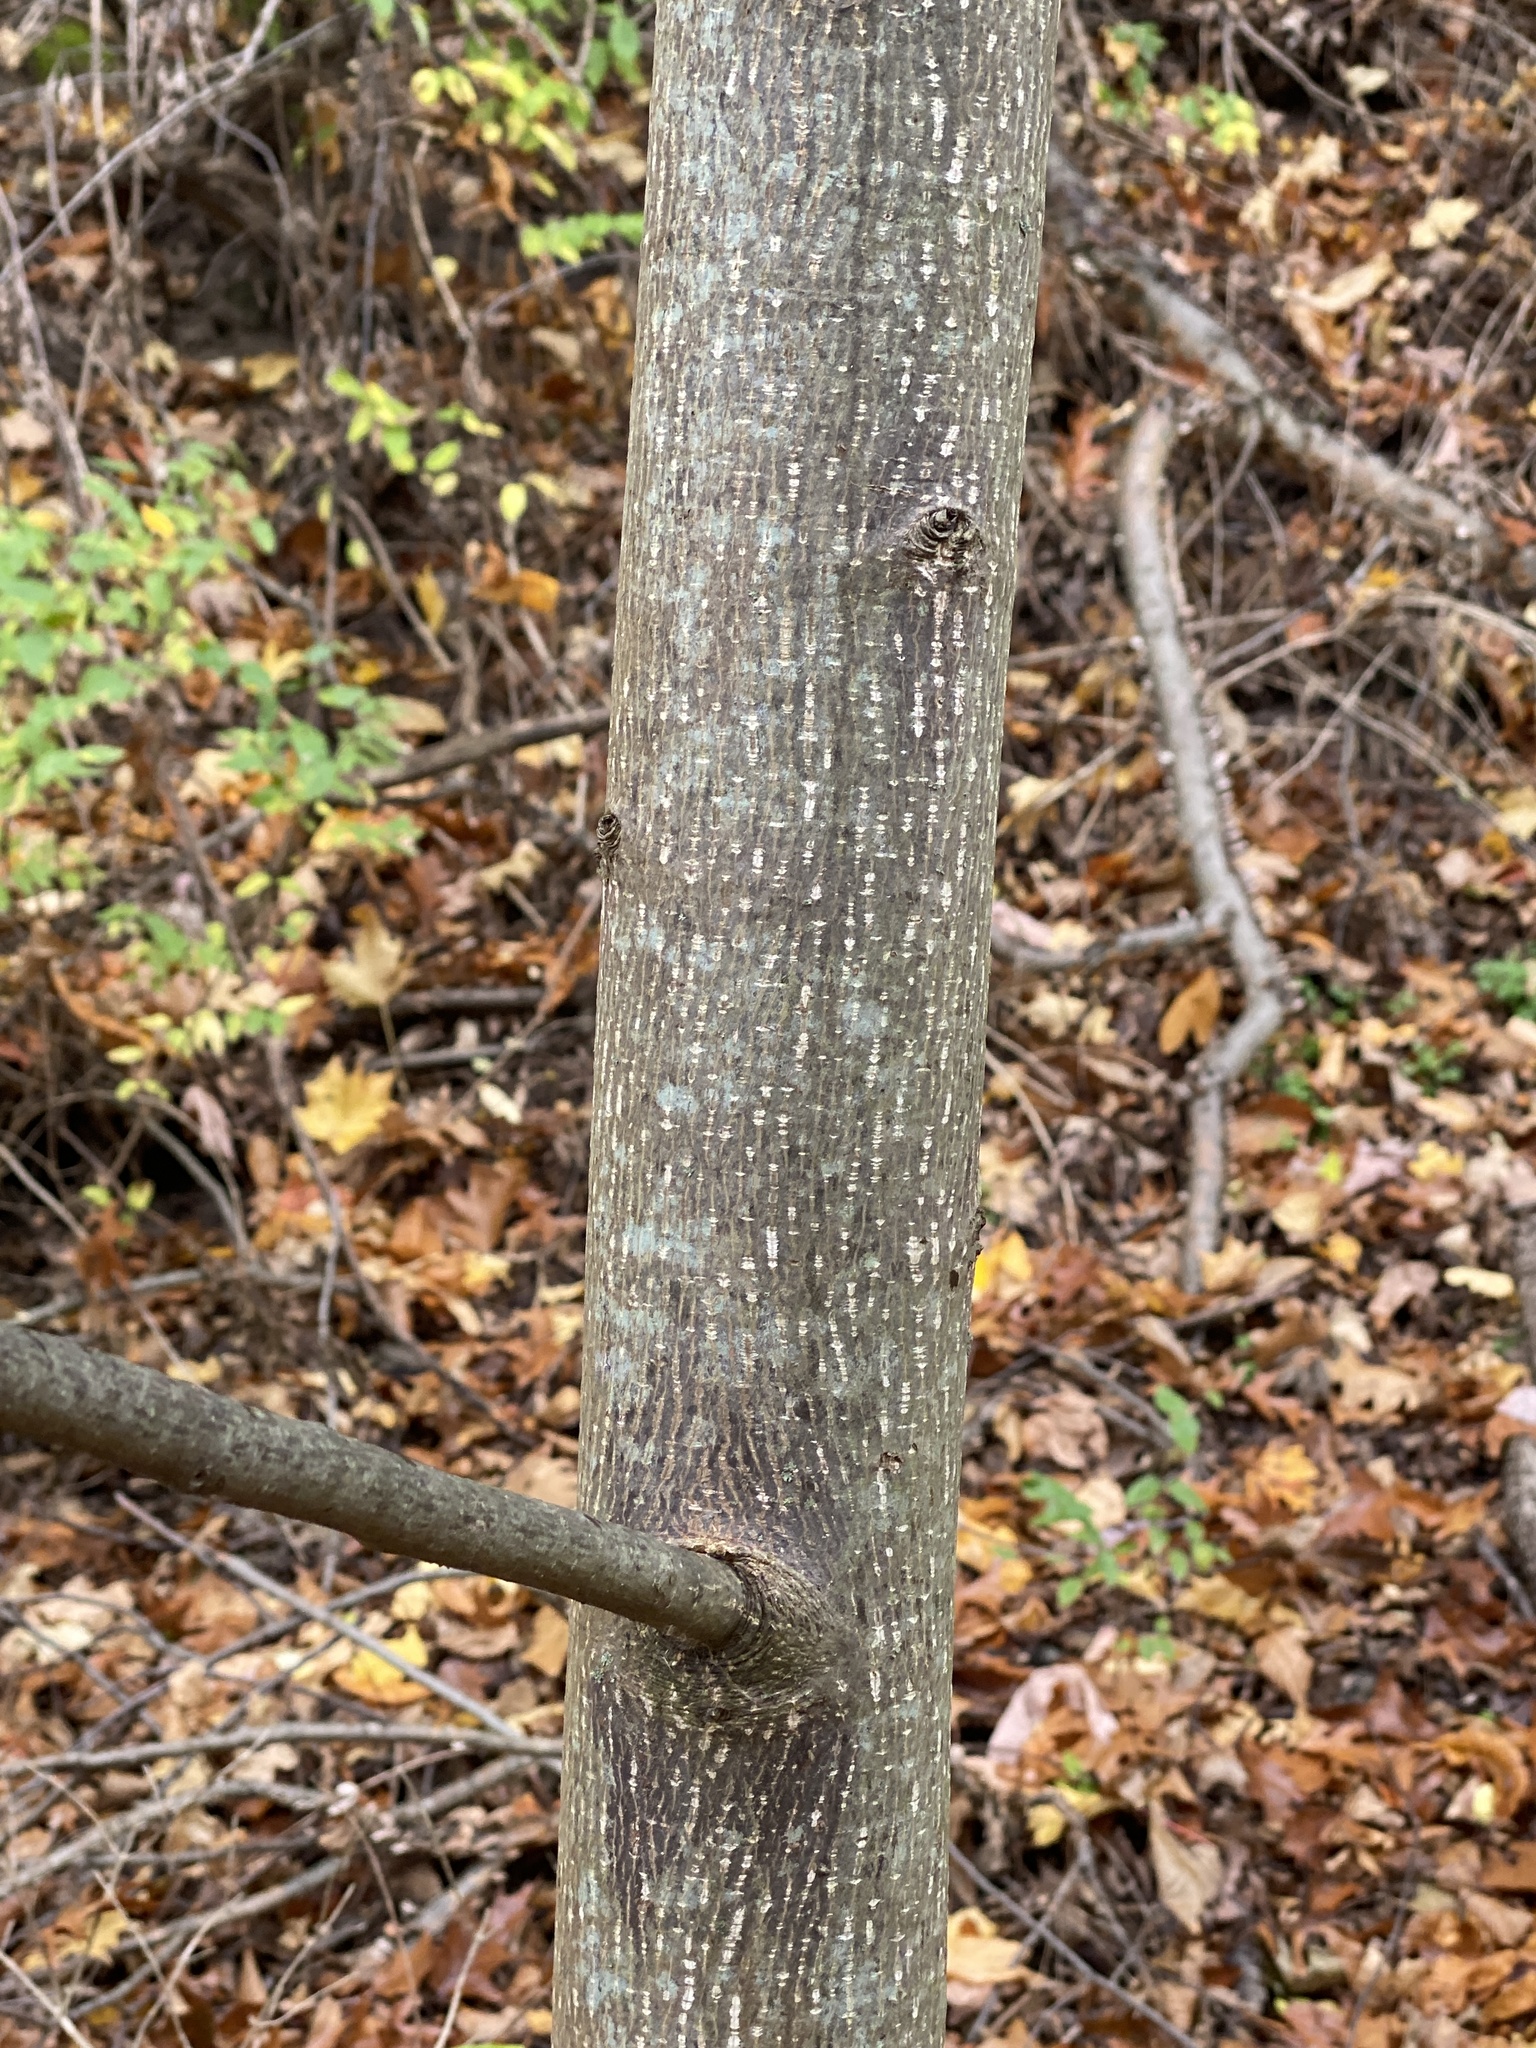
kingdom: Plantae
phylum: Tracheophyta
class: Magnoliopsida
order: Magnoliales
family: Magnoliaceae
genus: Liriodendron
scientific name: Liriodendron tulipifera
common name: Tulip tree
